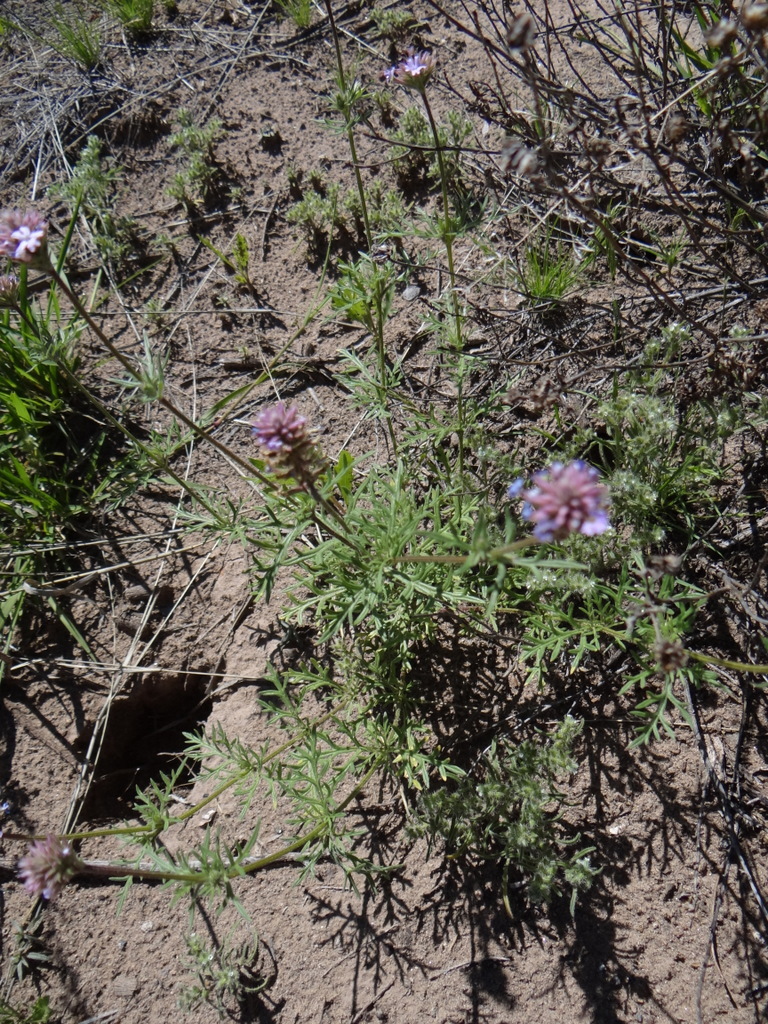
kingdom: Plantae
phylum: Tracheophyta
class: Magnoliopsida
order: Lamiales
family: Verbenaceae
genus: Verbena
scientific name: Verbena mendocina
